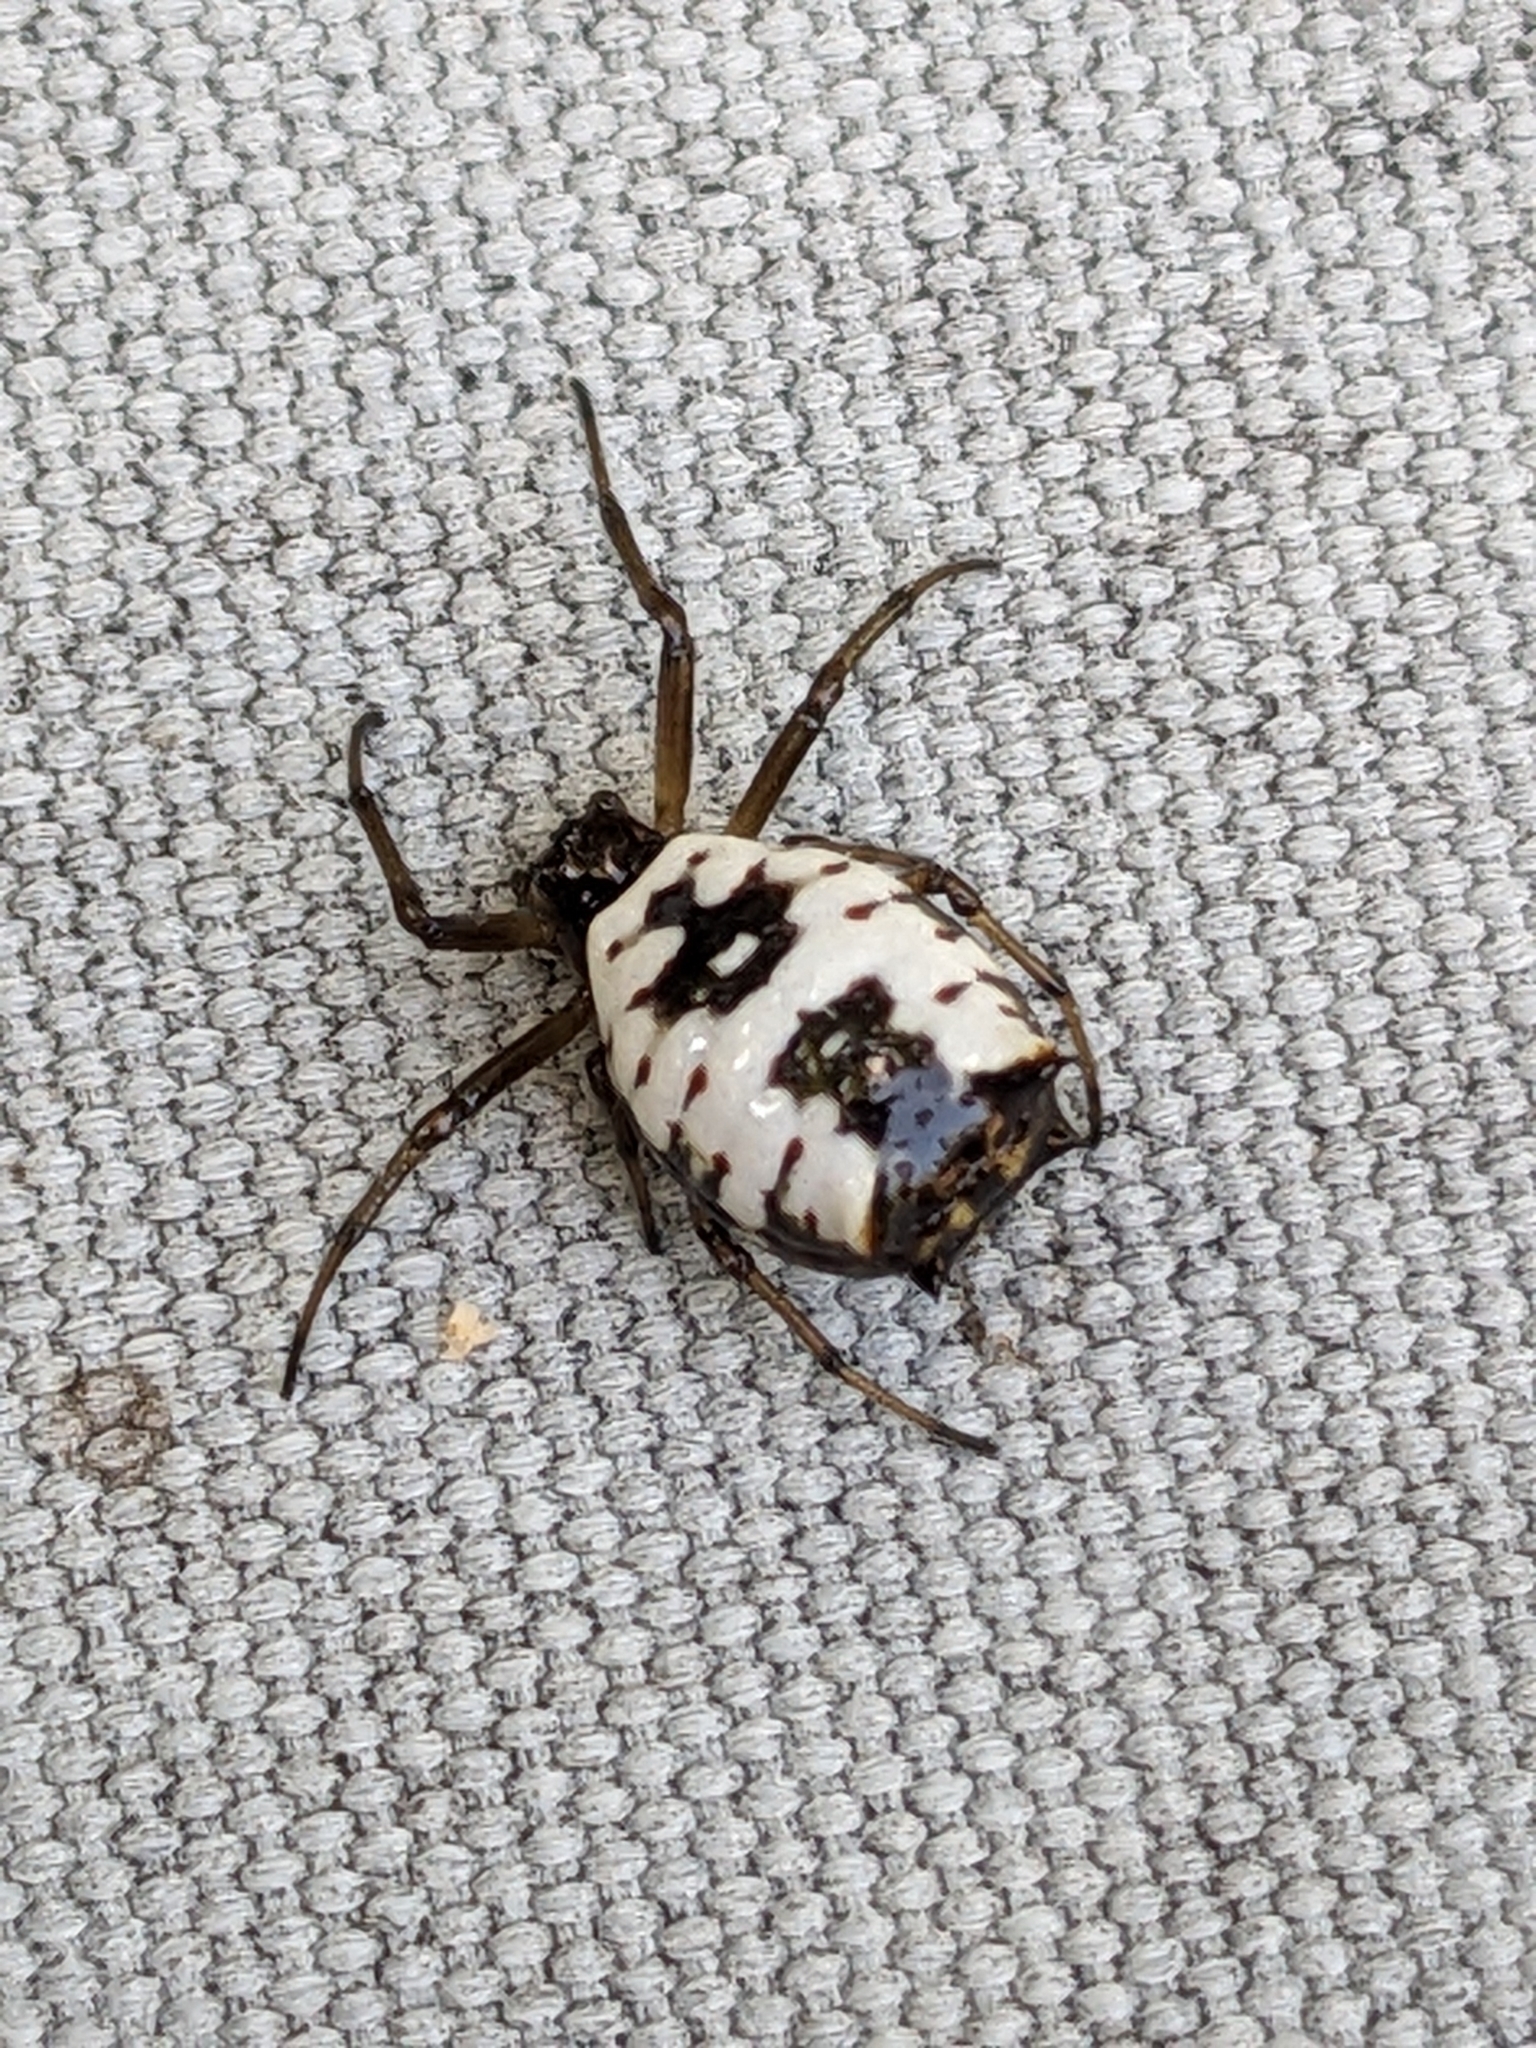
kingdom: Animalia
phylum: Arthropoda
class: Arachnida
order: Araneae
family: Araneidae
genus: Micrathena
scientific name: Micrathena mitrata
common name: Orb weavers
